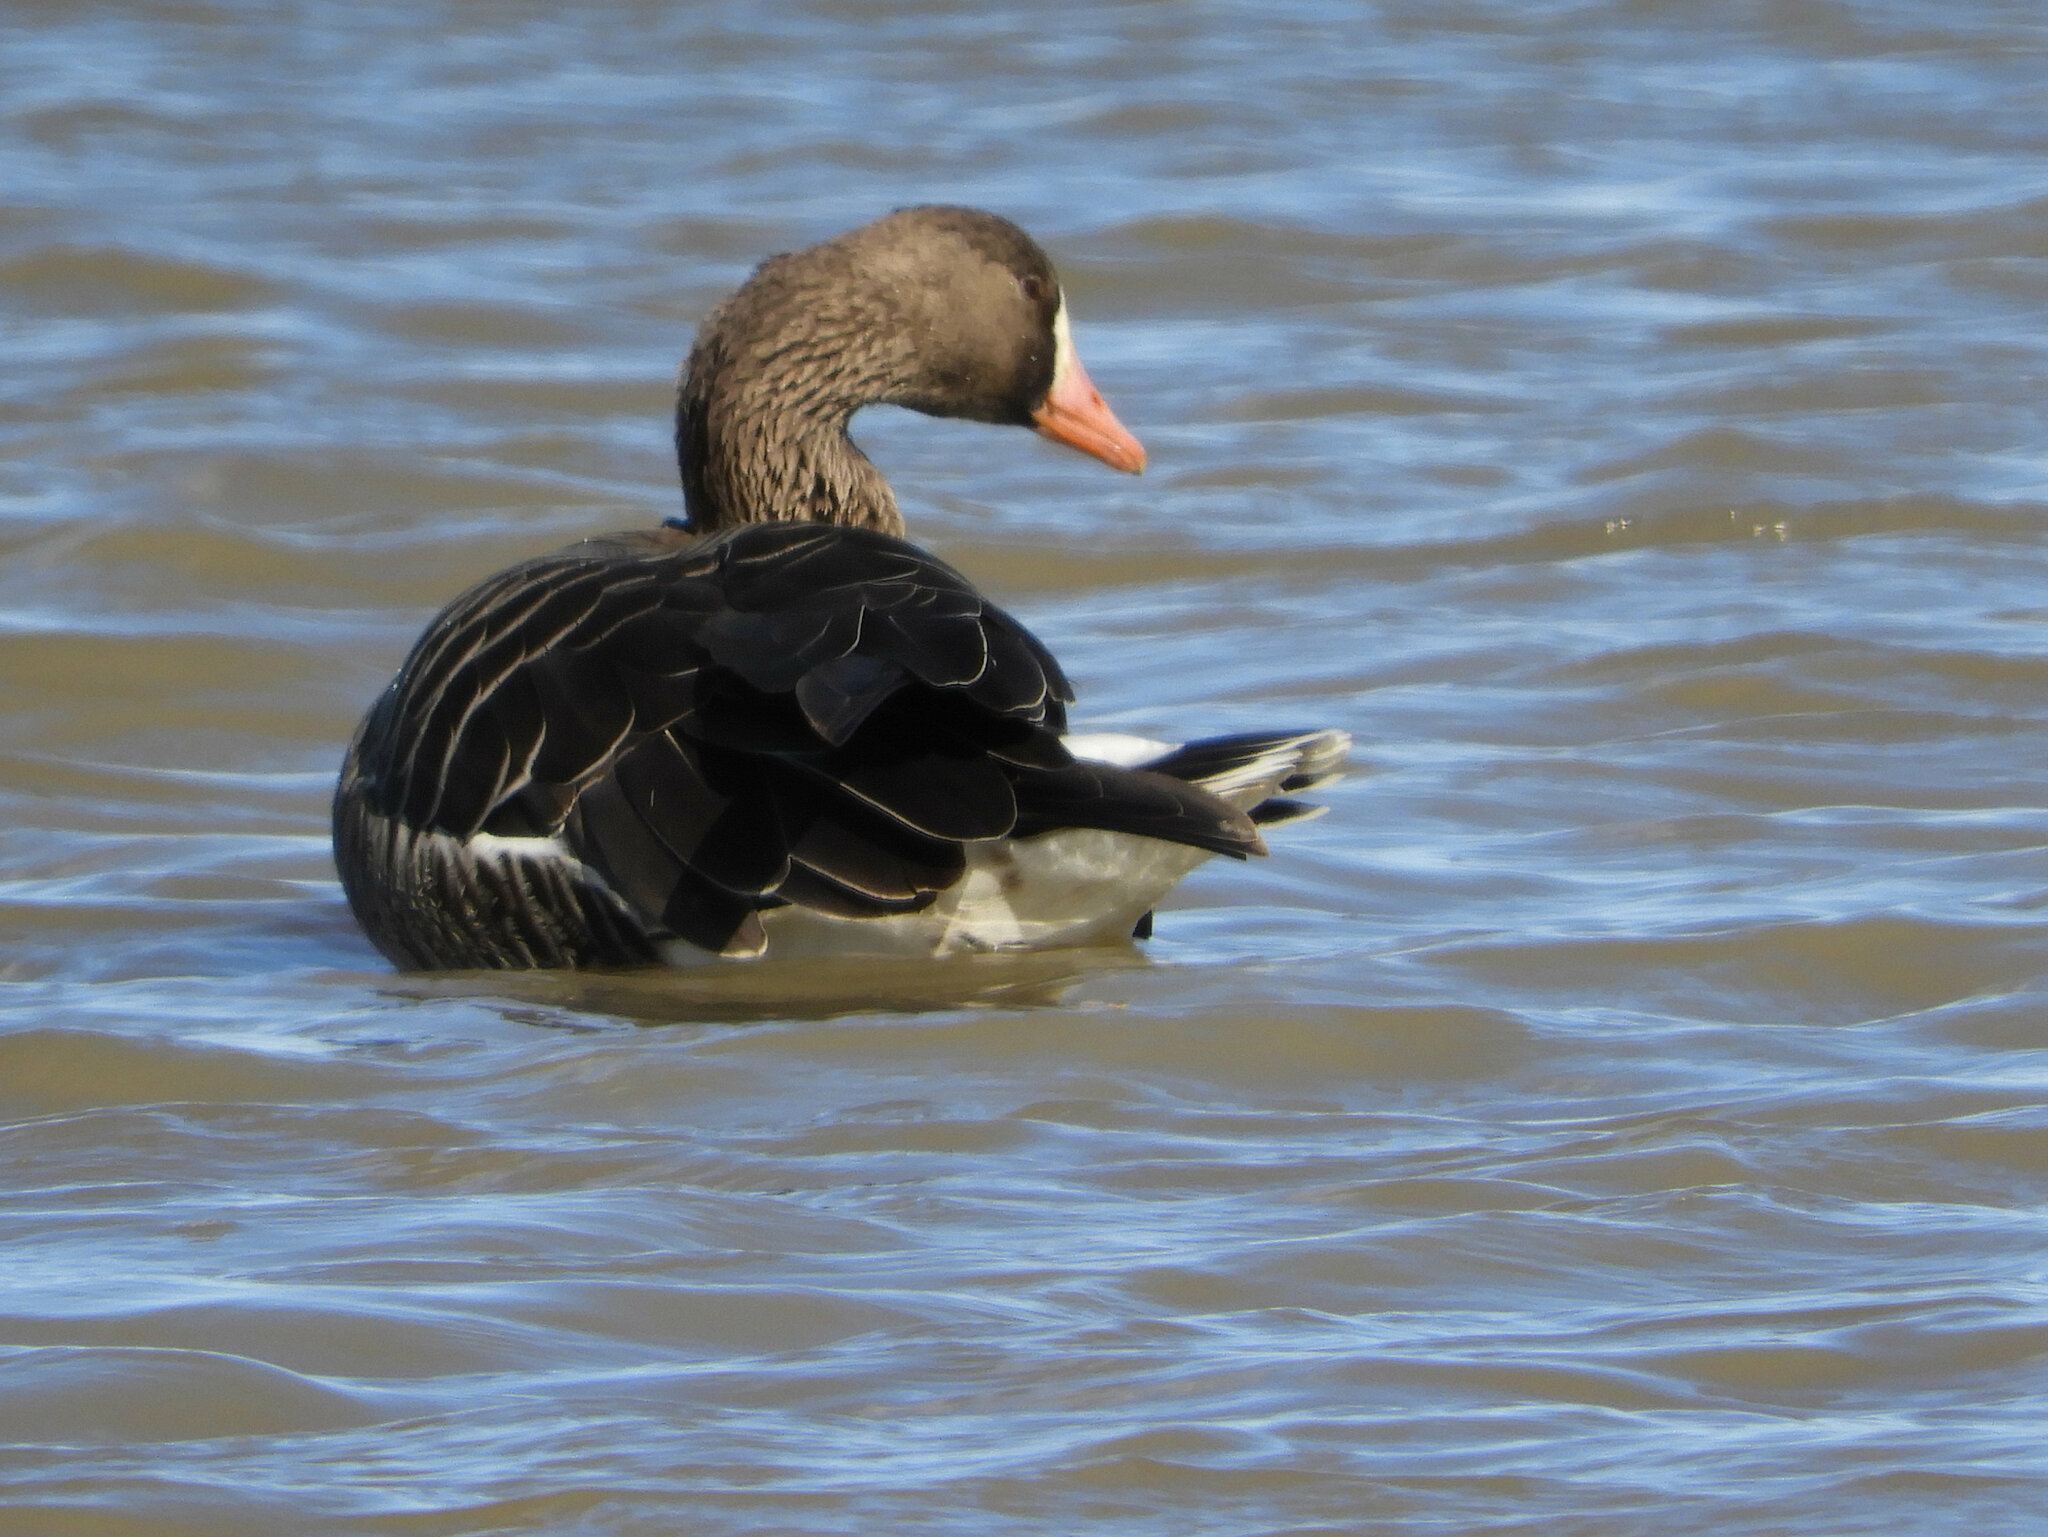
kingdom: Animalia
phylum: Chordata
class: Aves
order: Anseriformes
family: Anatidae
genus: Anser
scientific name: Anser albifrons
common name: Greater white-fronted goose
